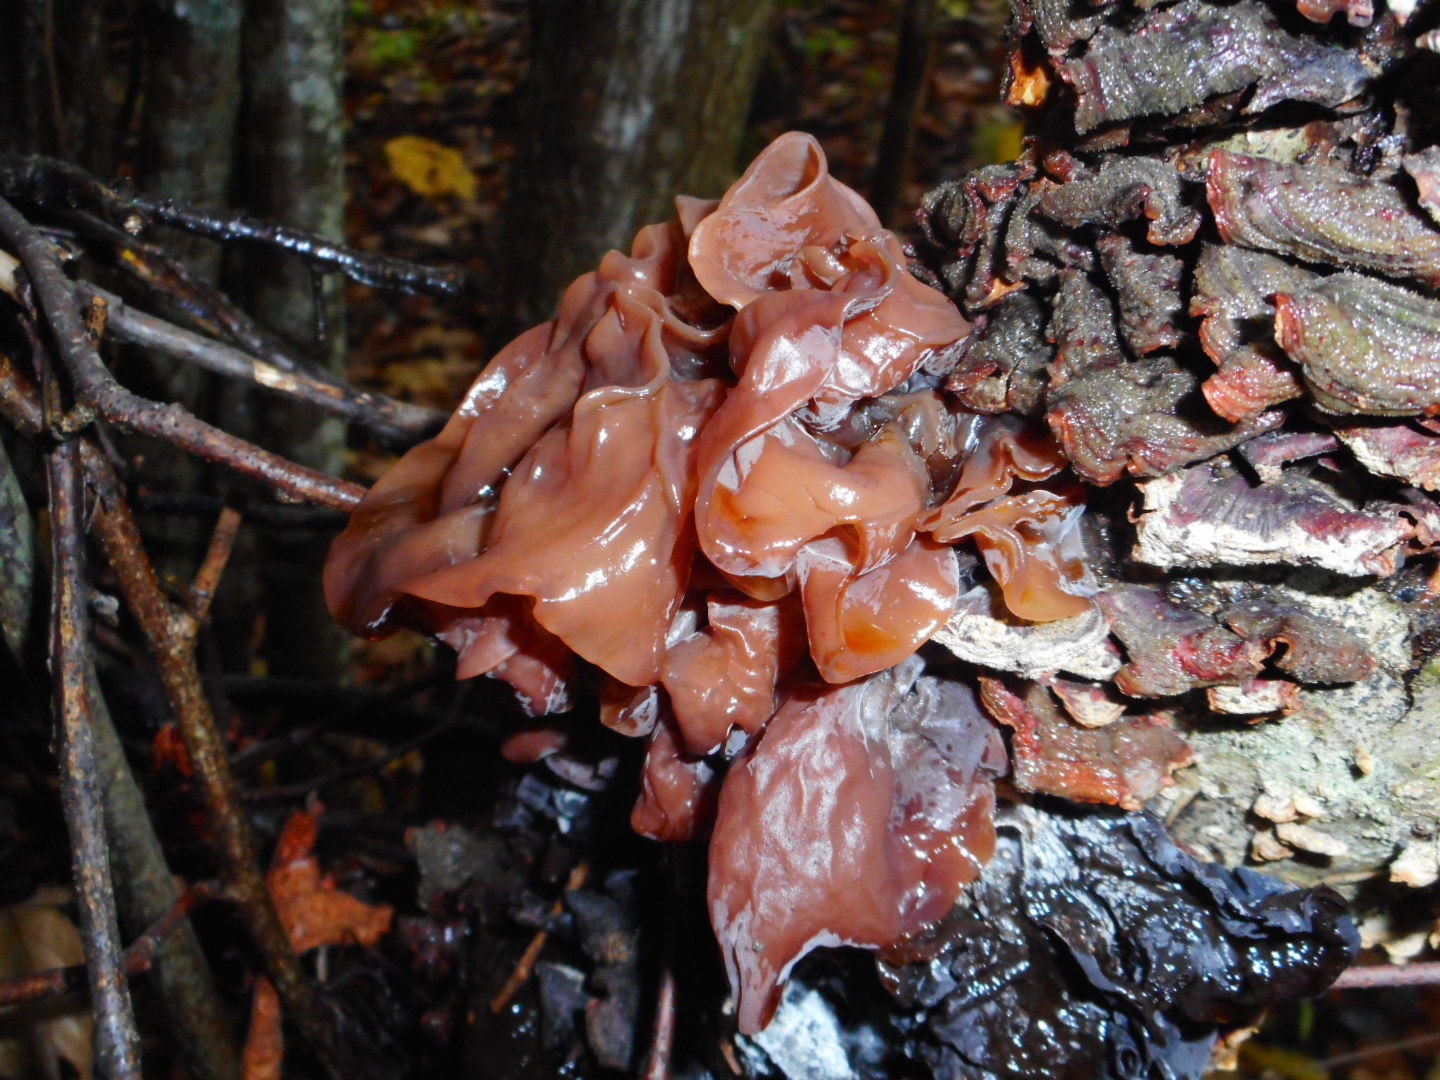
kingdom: Fungi
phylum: Basidiomycota
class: Tremellomycetes
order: Tremellales
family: Tremellaceae
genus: Phaeotremella
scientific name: Phaeotremella frondosa
